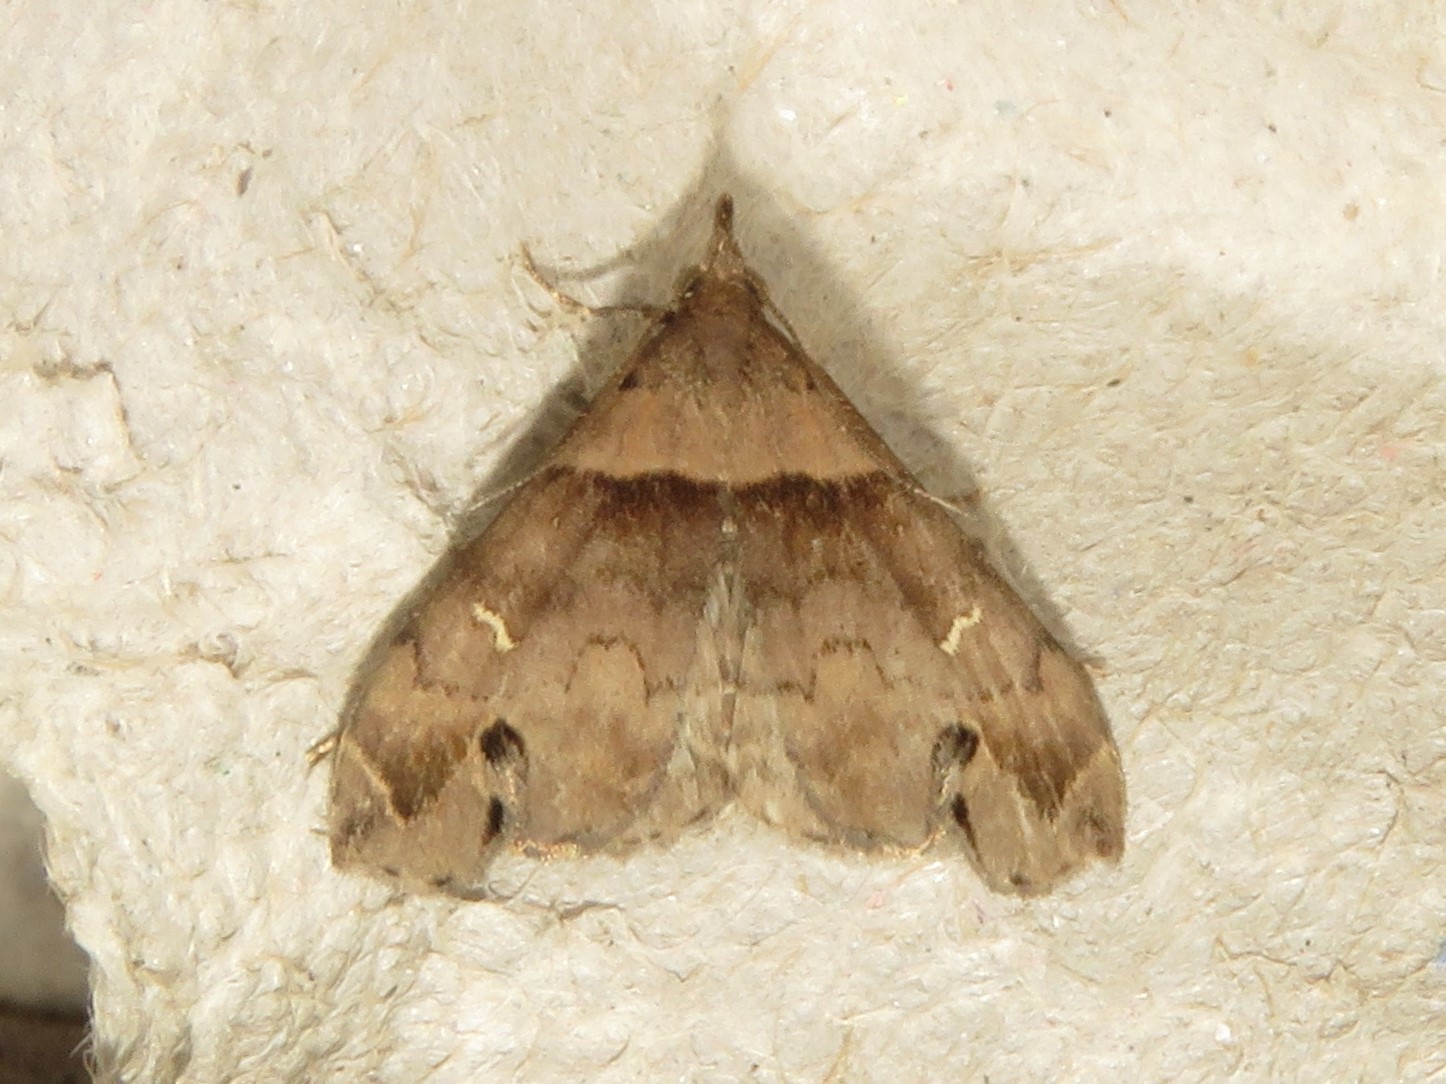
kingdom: Animalia
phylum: Arthropoda
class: Insecta
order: Lepidoptera
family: Erebidae
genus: Lascoria
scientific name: Lascoria ambigualis
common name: Ambiguous moth
